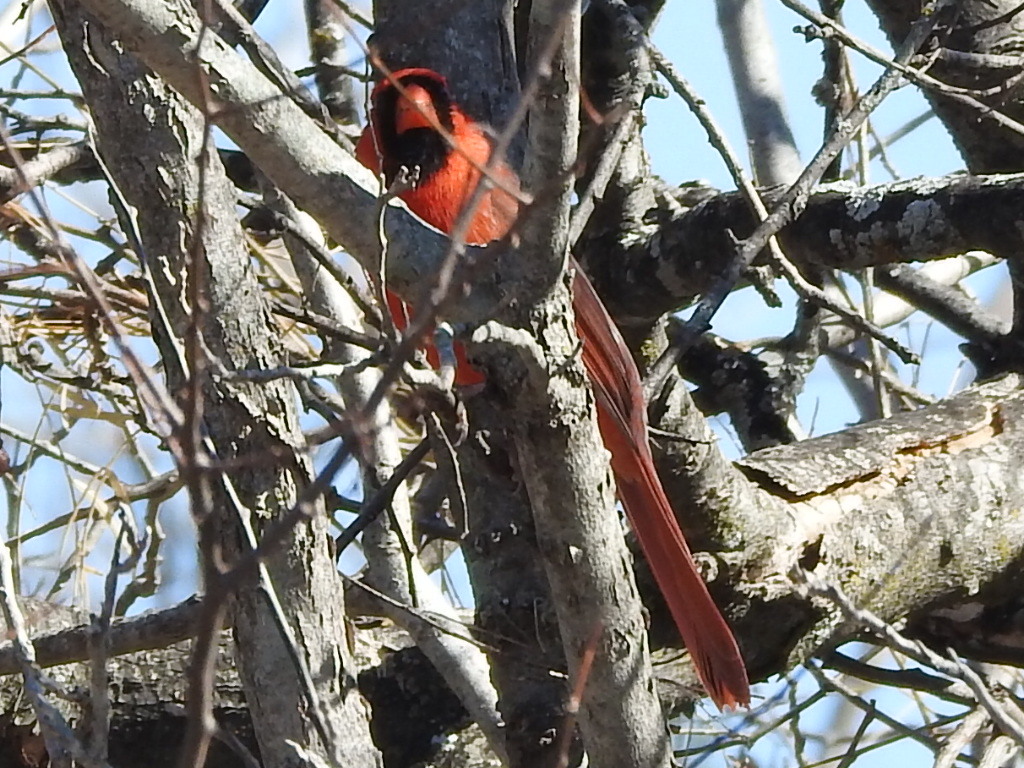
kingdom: Animalia
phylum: Chordata
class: Aves
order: Passeriformes
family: Cardinalidae
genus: Cardinalis
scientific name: Cardinalis cardinalis
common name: Northern cardinal
